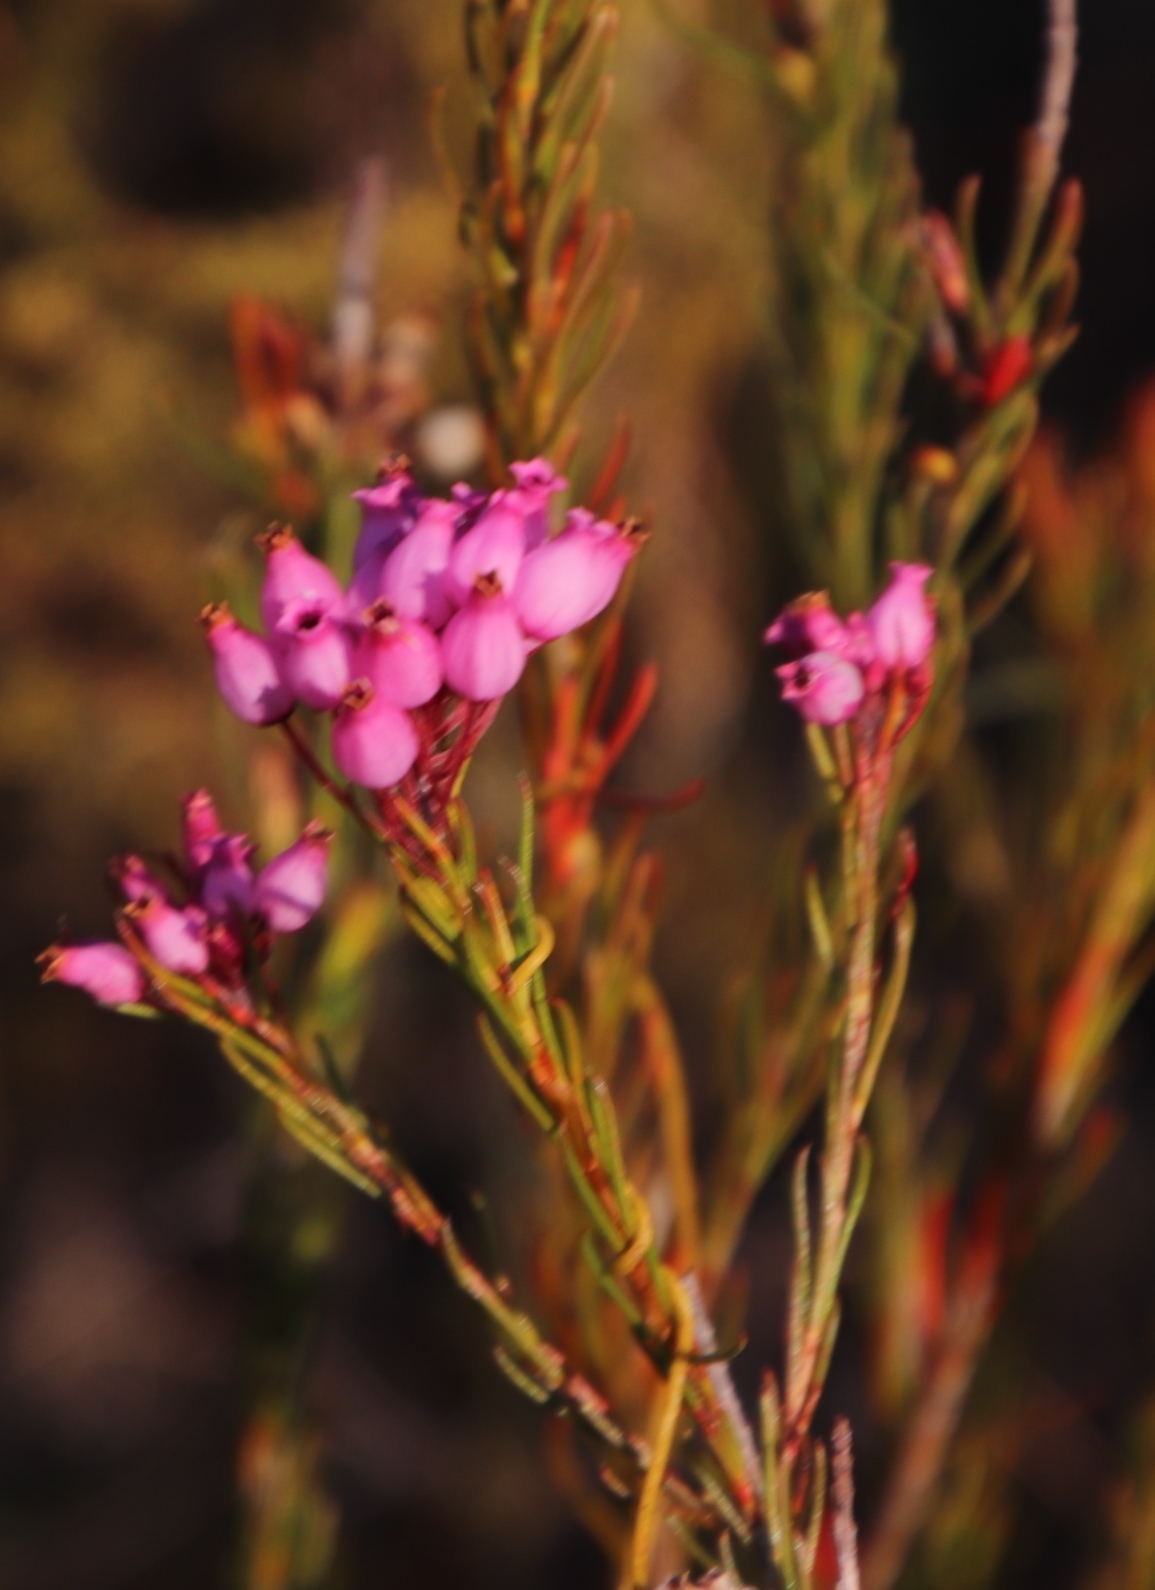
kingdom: Plantae
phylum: Tracheophyta
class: Magnoliopsida
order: Ericales
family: Ericaceae
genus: Erica
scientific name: Erica inflata
